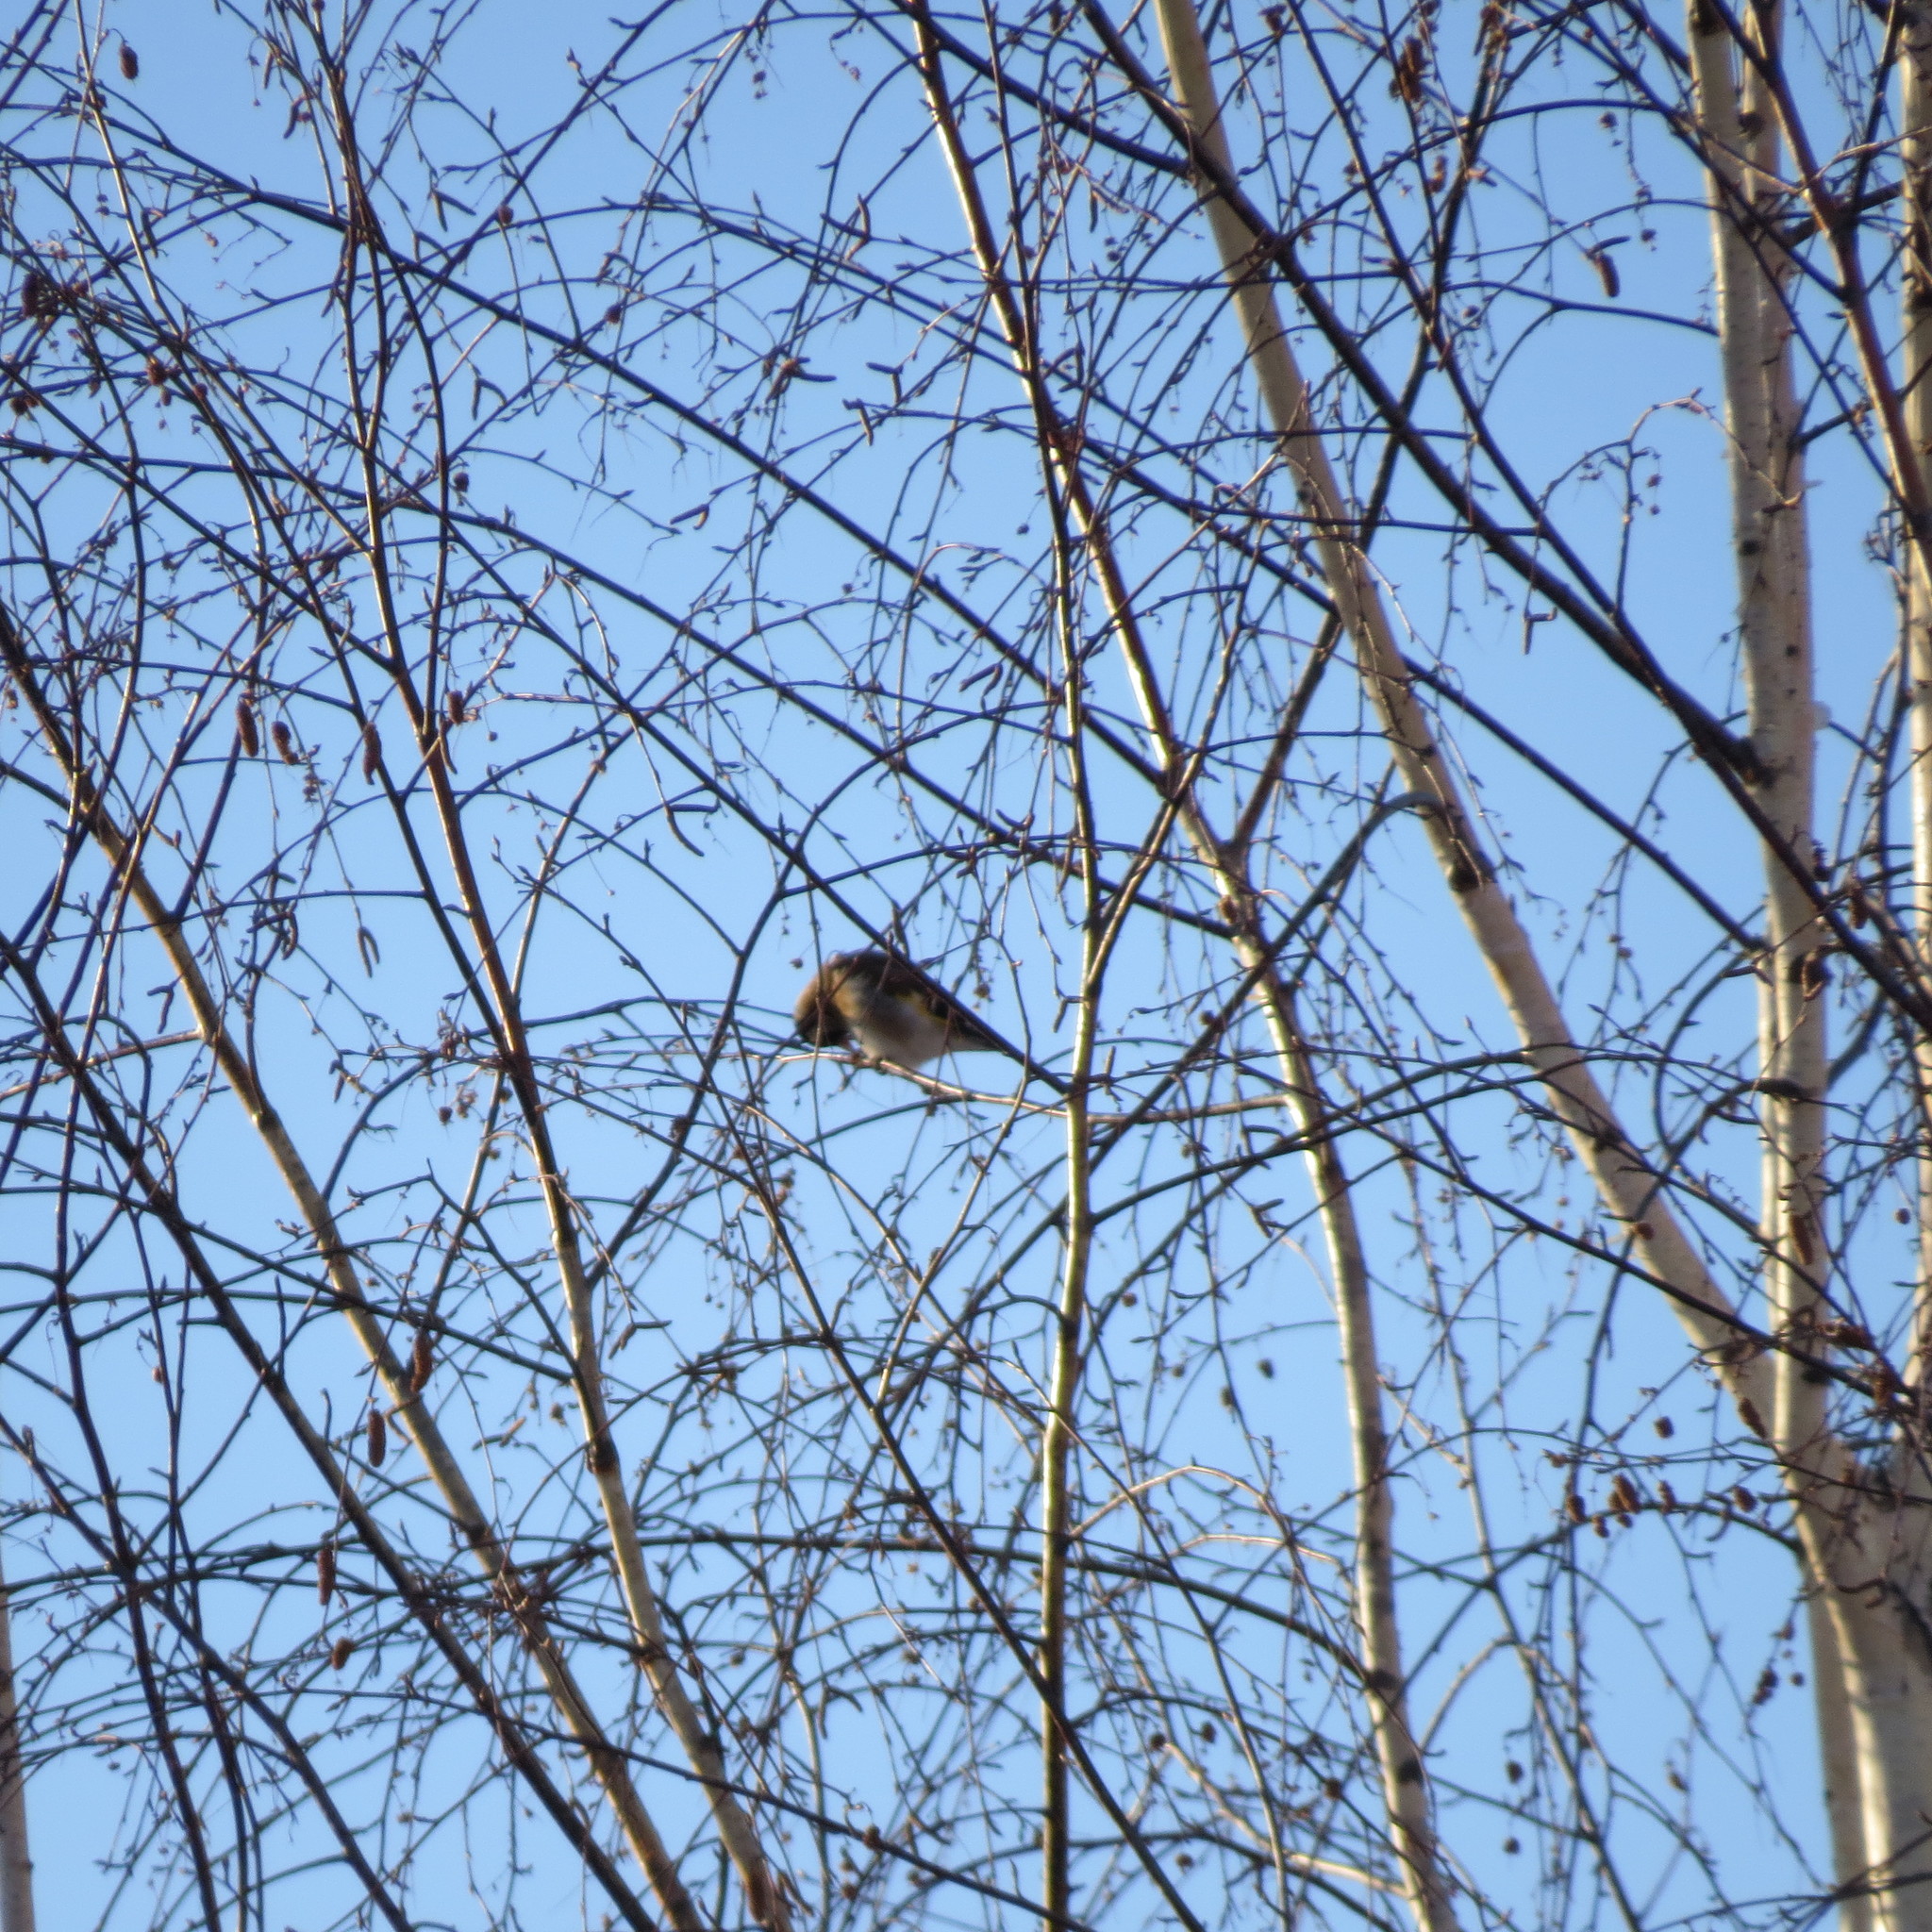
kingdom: Animalia
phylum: Chordata
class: Aves
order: Passeriformes
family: Fringillidae
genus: Carduelis
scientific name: Carduelis carduelis
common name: European goldfinch
